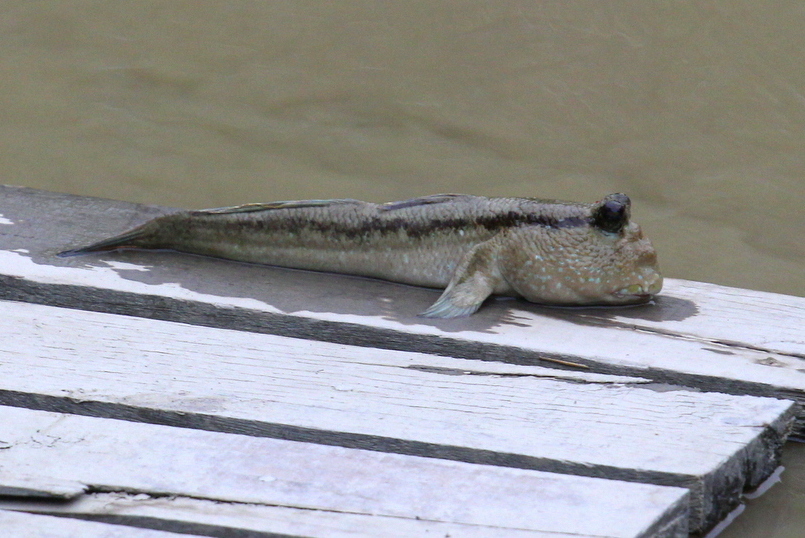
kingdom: Animalia
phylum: Chordata
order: Perciformes
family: Gobiidae
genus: Periophthalmodon
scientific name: Periophthalmodon schlosseri
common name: Giant mudskipper
